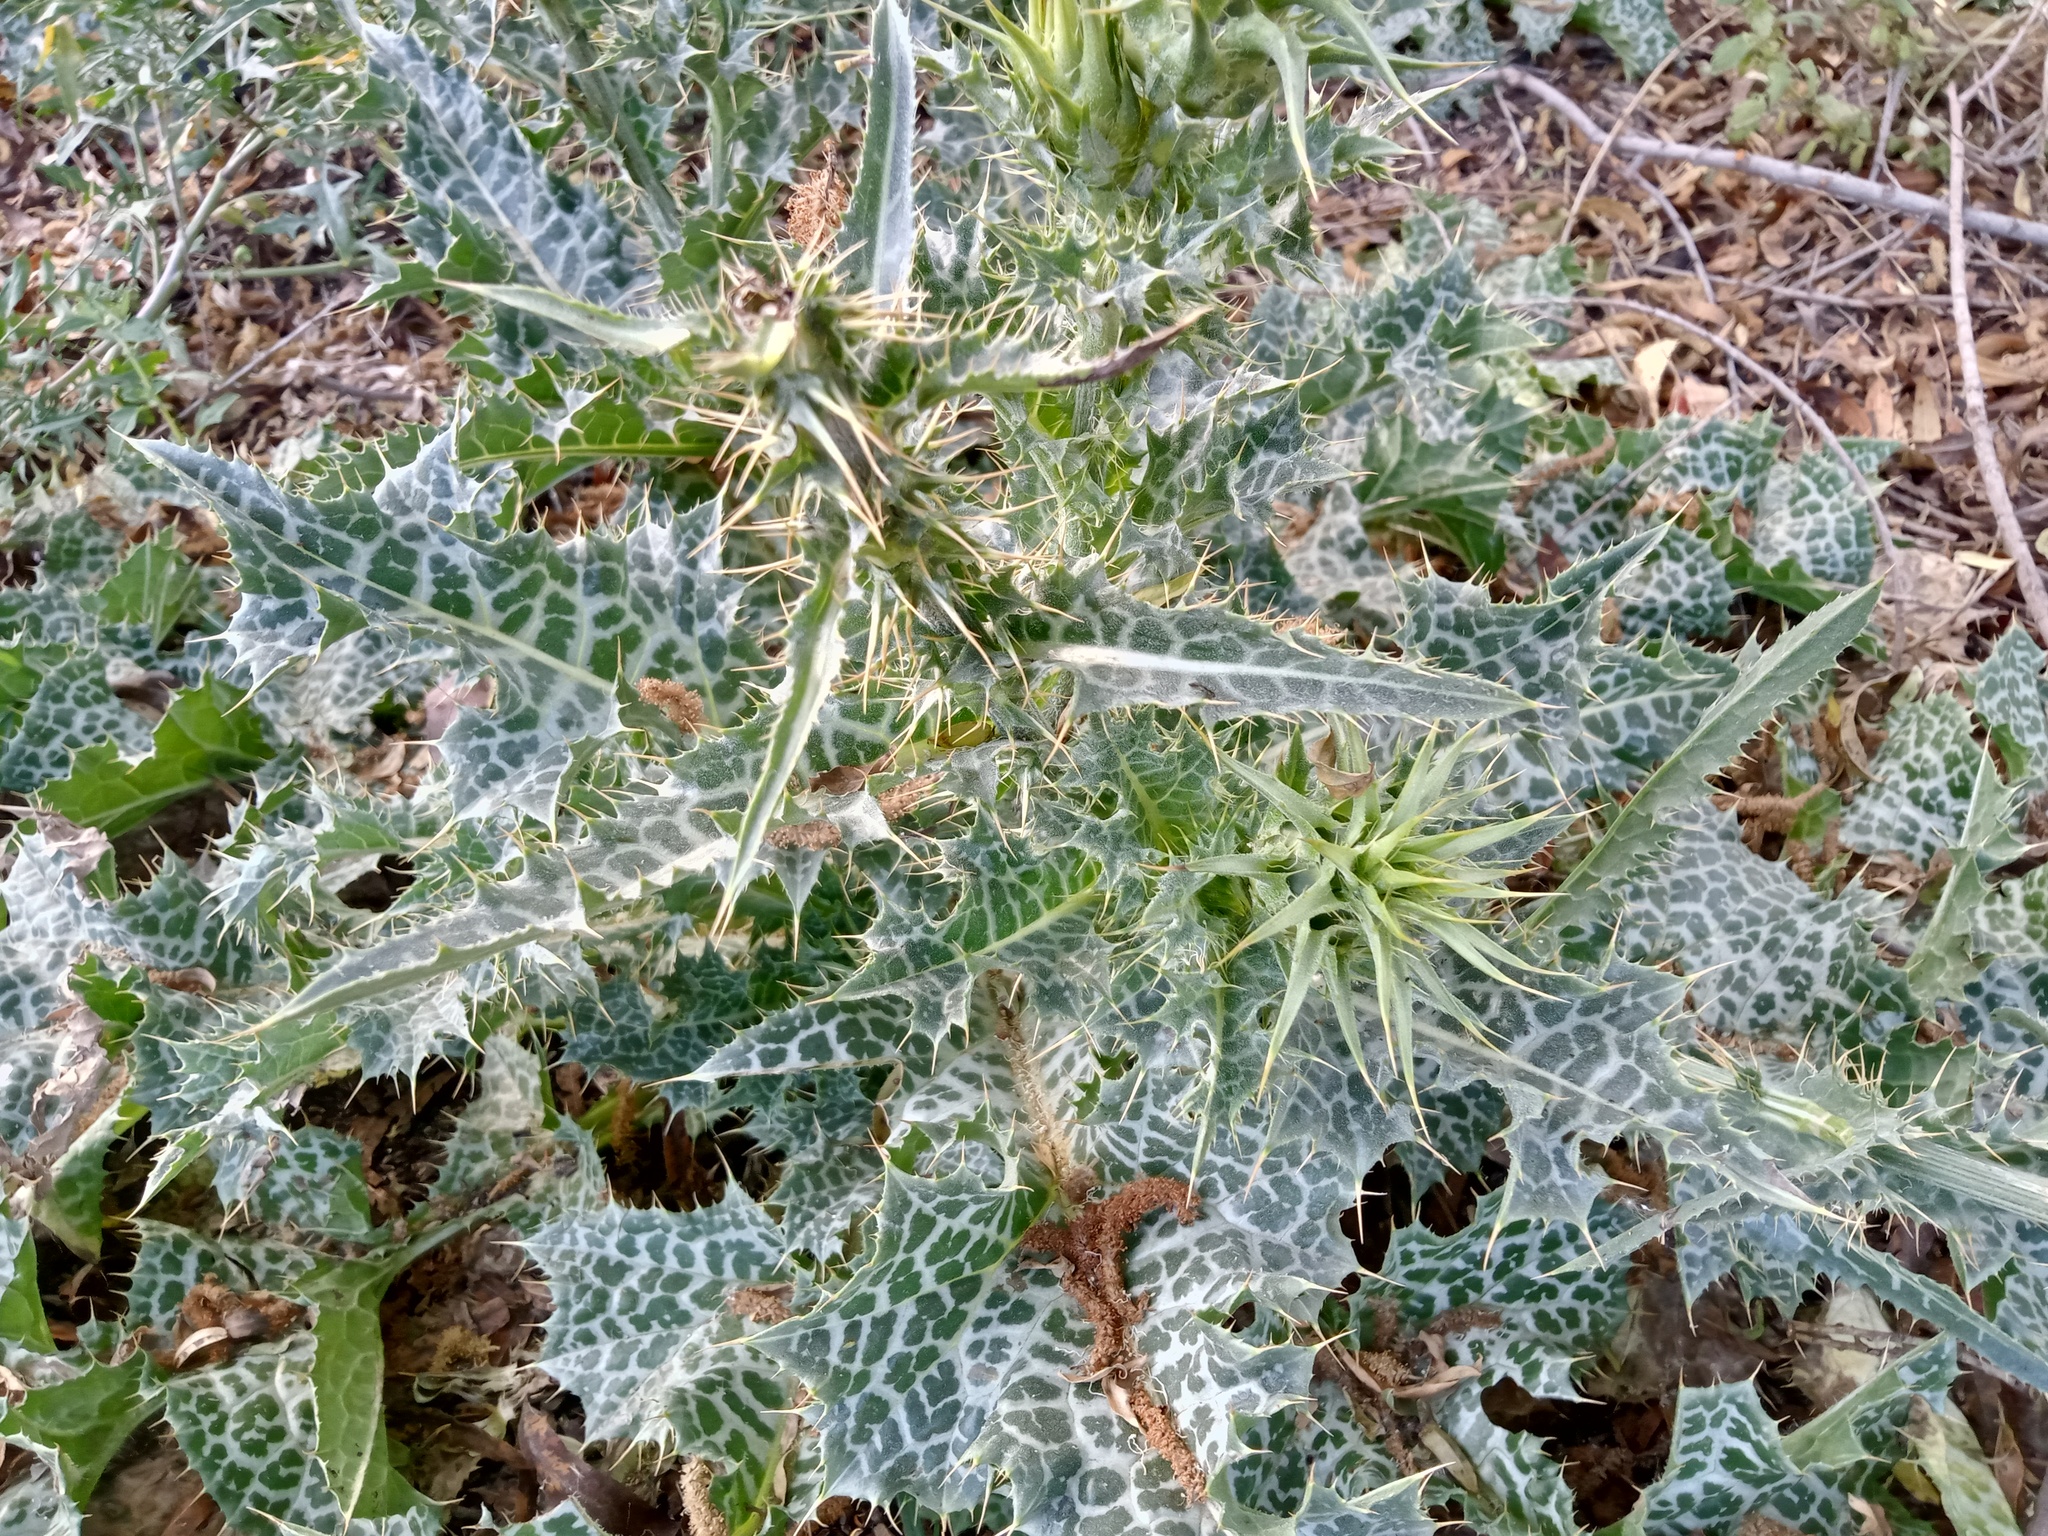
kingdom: Plantae
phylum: Tracheophyta
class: Magnoliopsida
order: Asterales
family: Asteraceae
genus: Silybum
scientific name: Silybum marianum
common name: Milk thistle
